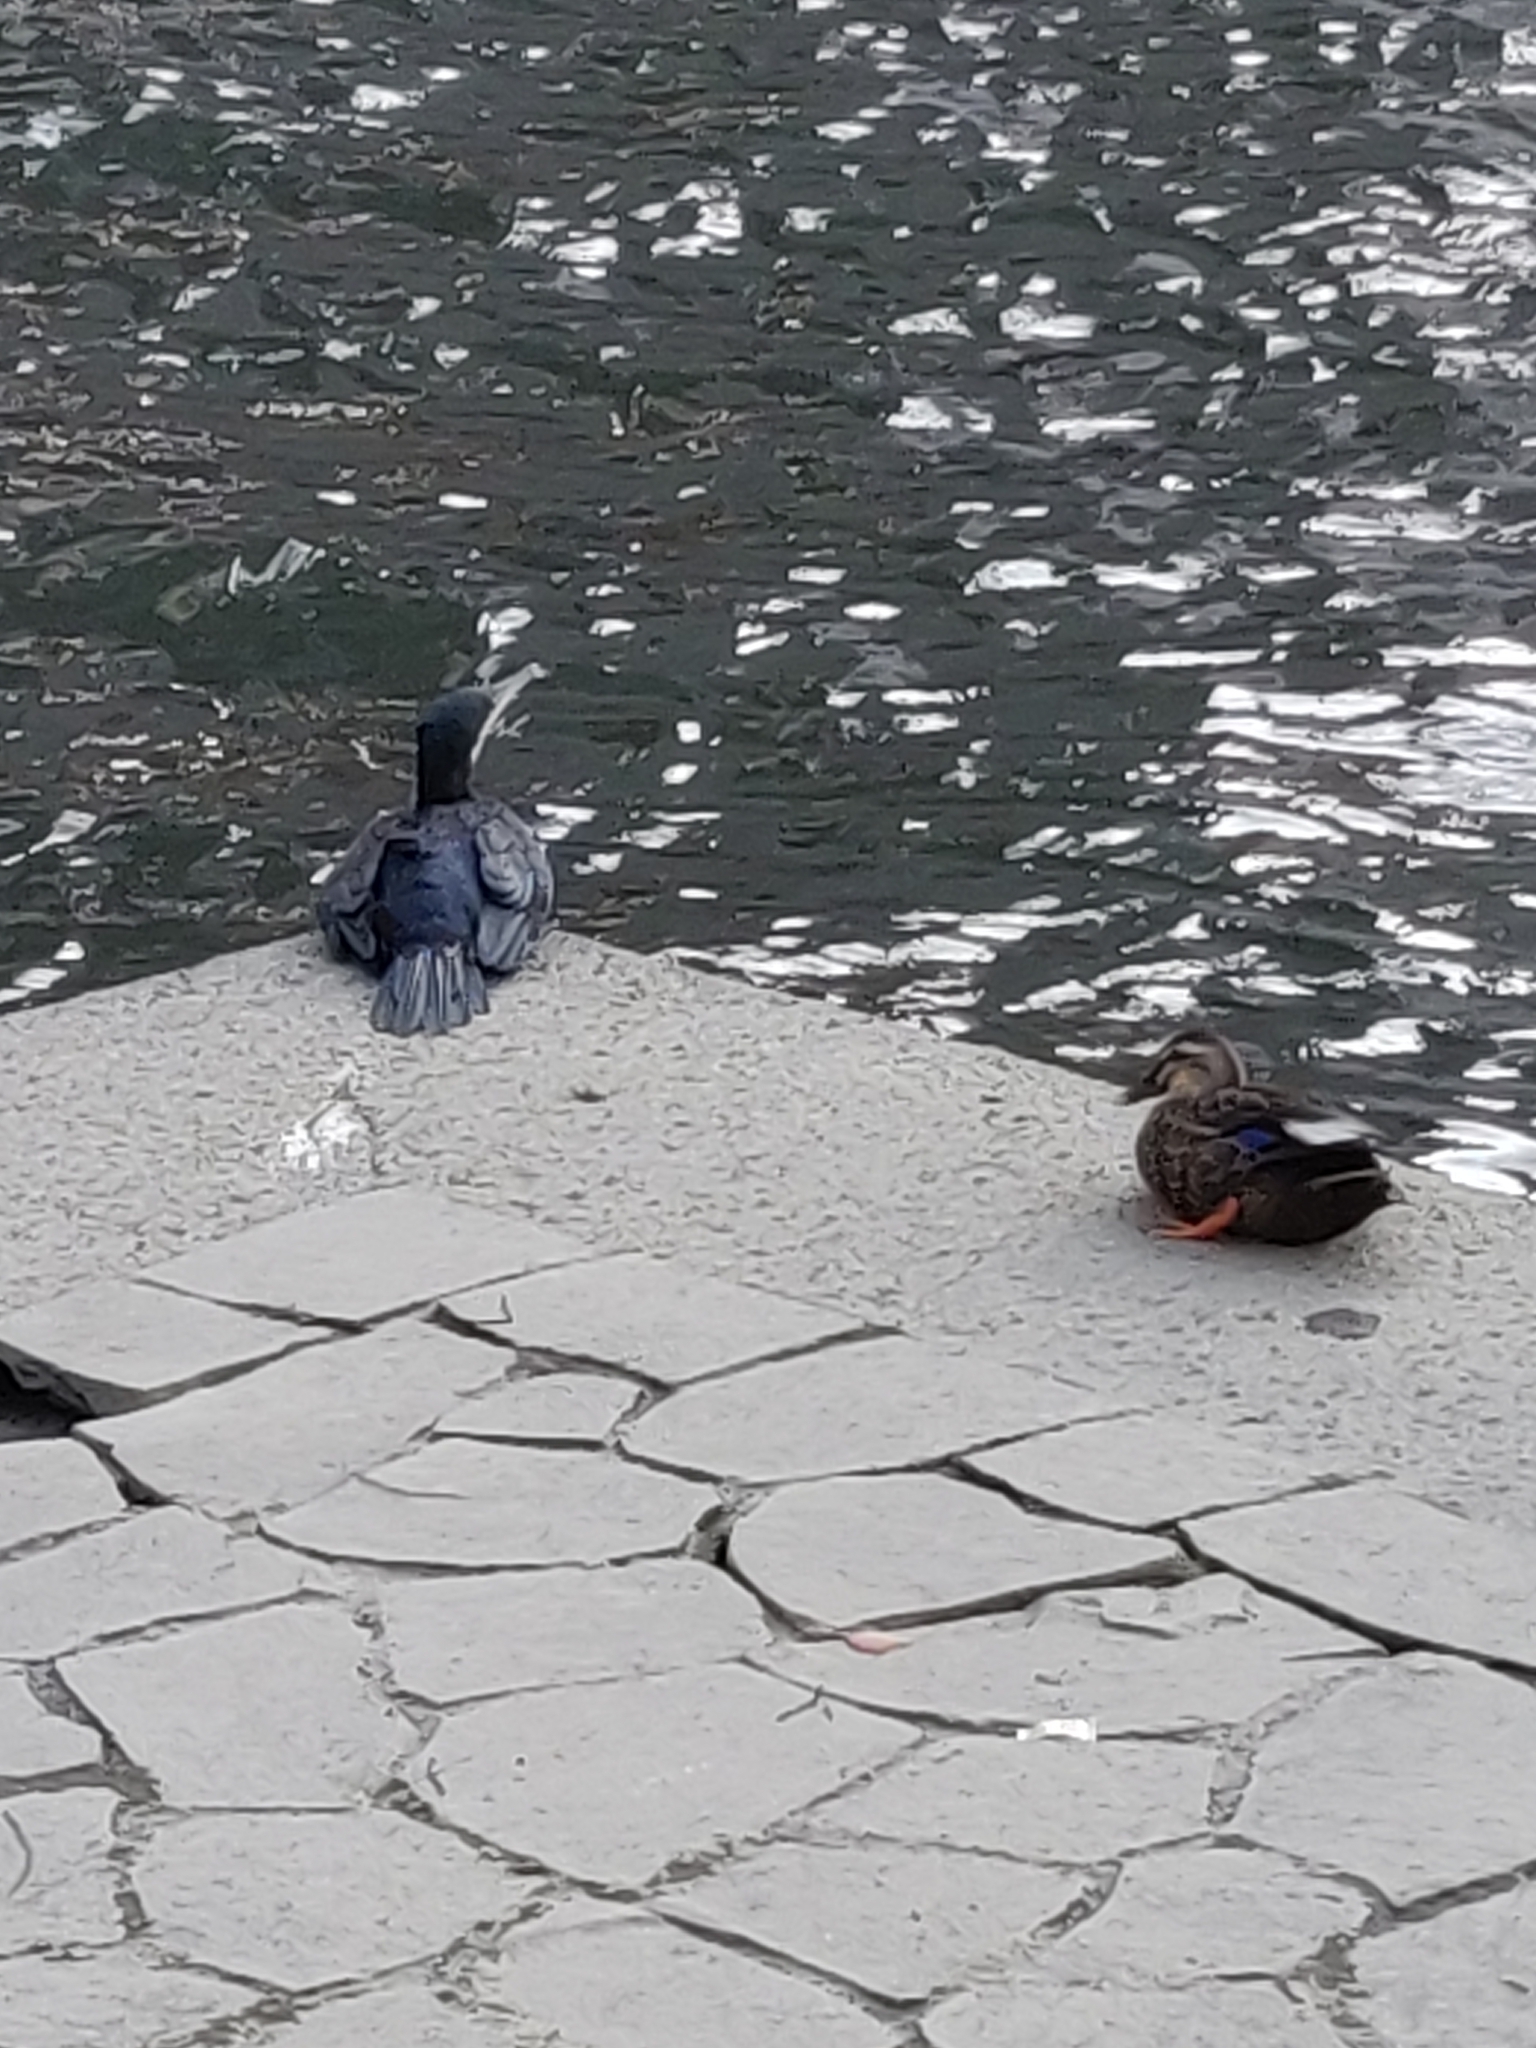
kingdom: Animalia
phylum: Chordata
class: Aves
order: Suliformes
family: Phalacrocoracidae
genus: Phalacrocorax
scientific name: Phalacrocorax carbo
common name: Great cormorant
